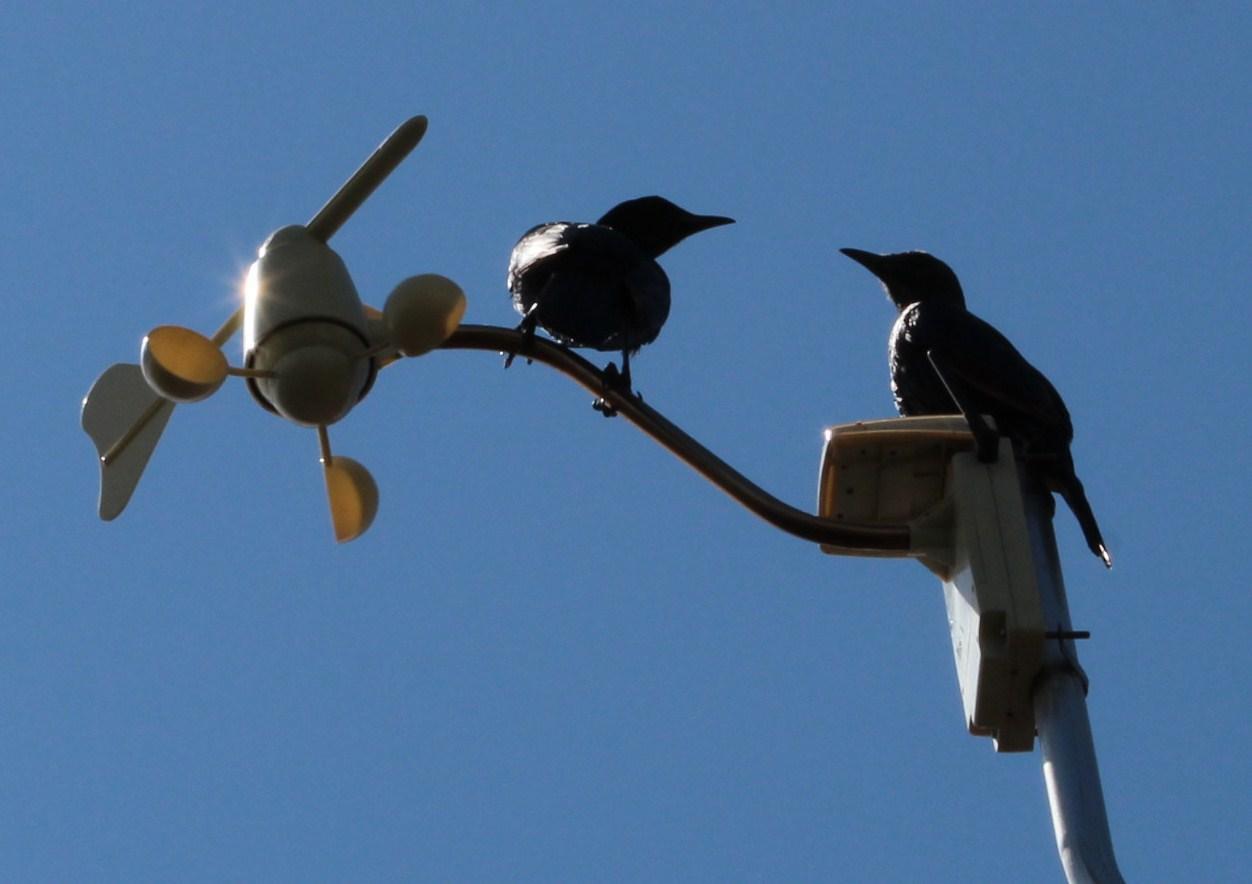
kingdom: Animalia
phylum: Chordata
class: Aves
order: Passeriformes
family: Sturnidae
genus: Onychognathus
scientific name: Onychognathus morio
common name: Red-winged starling
